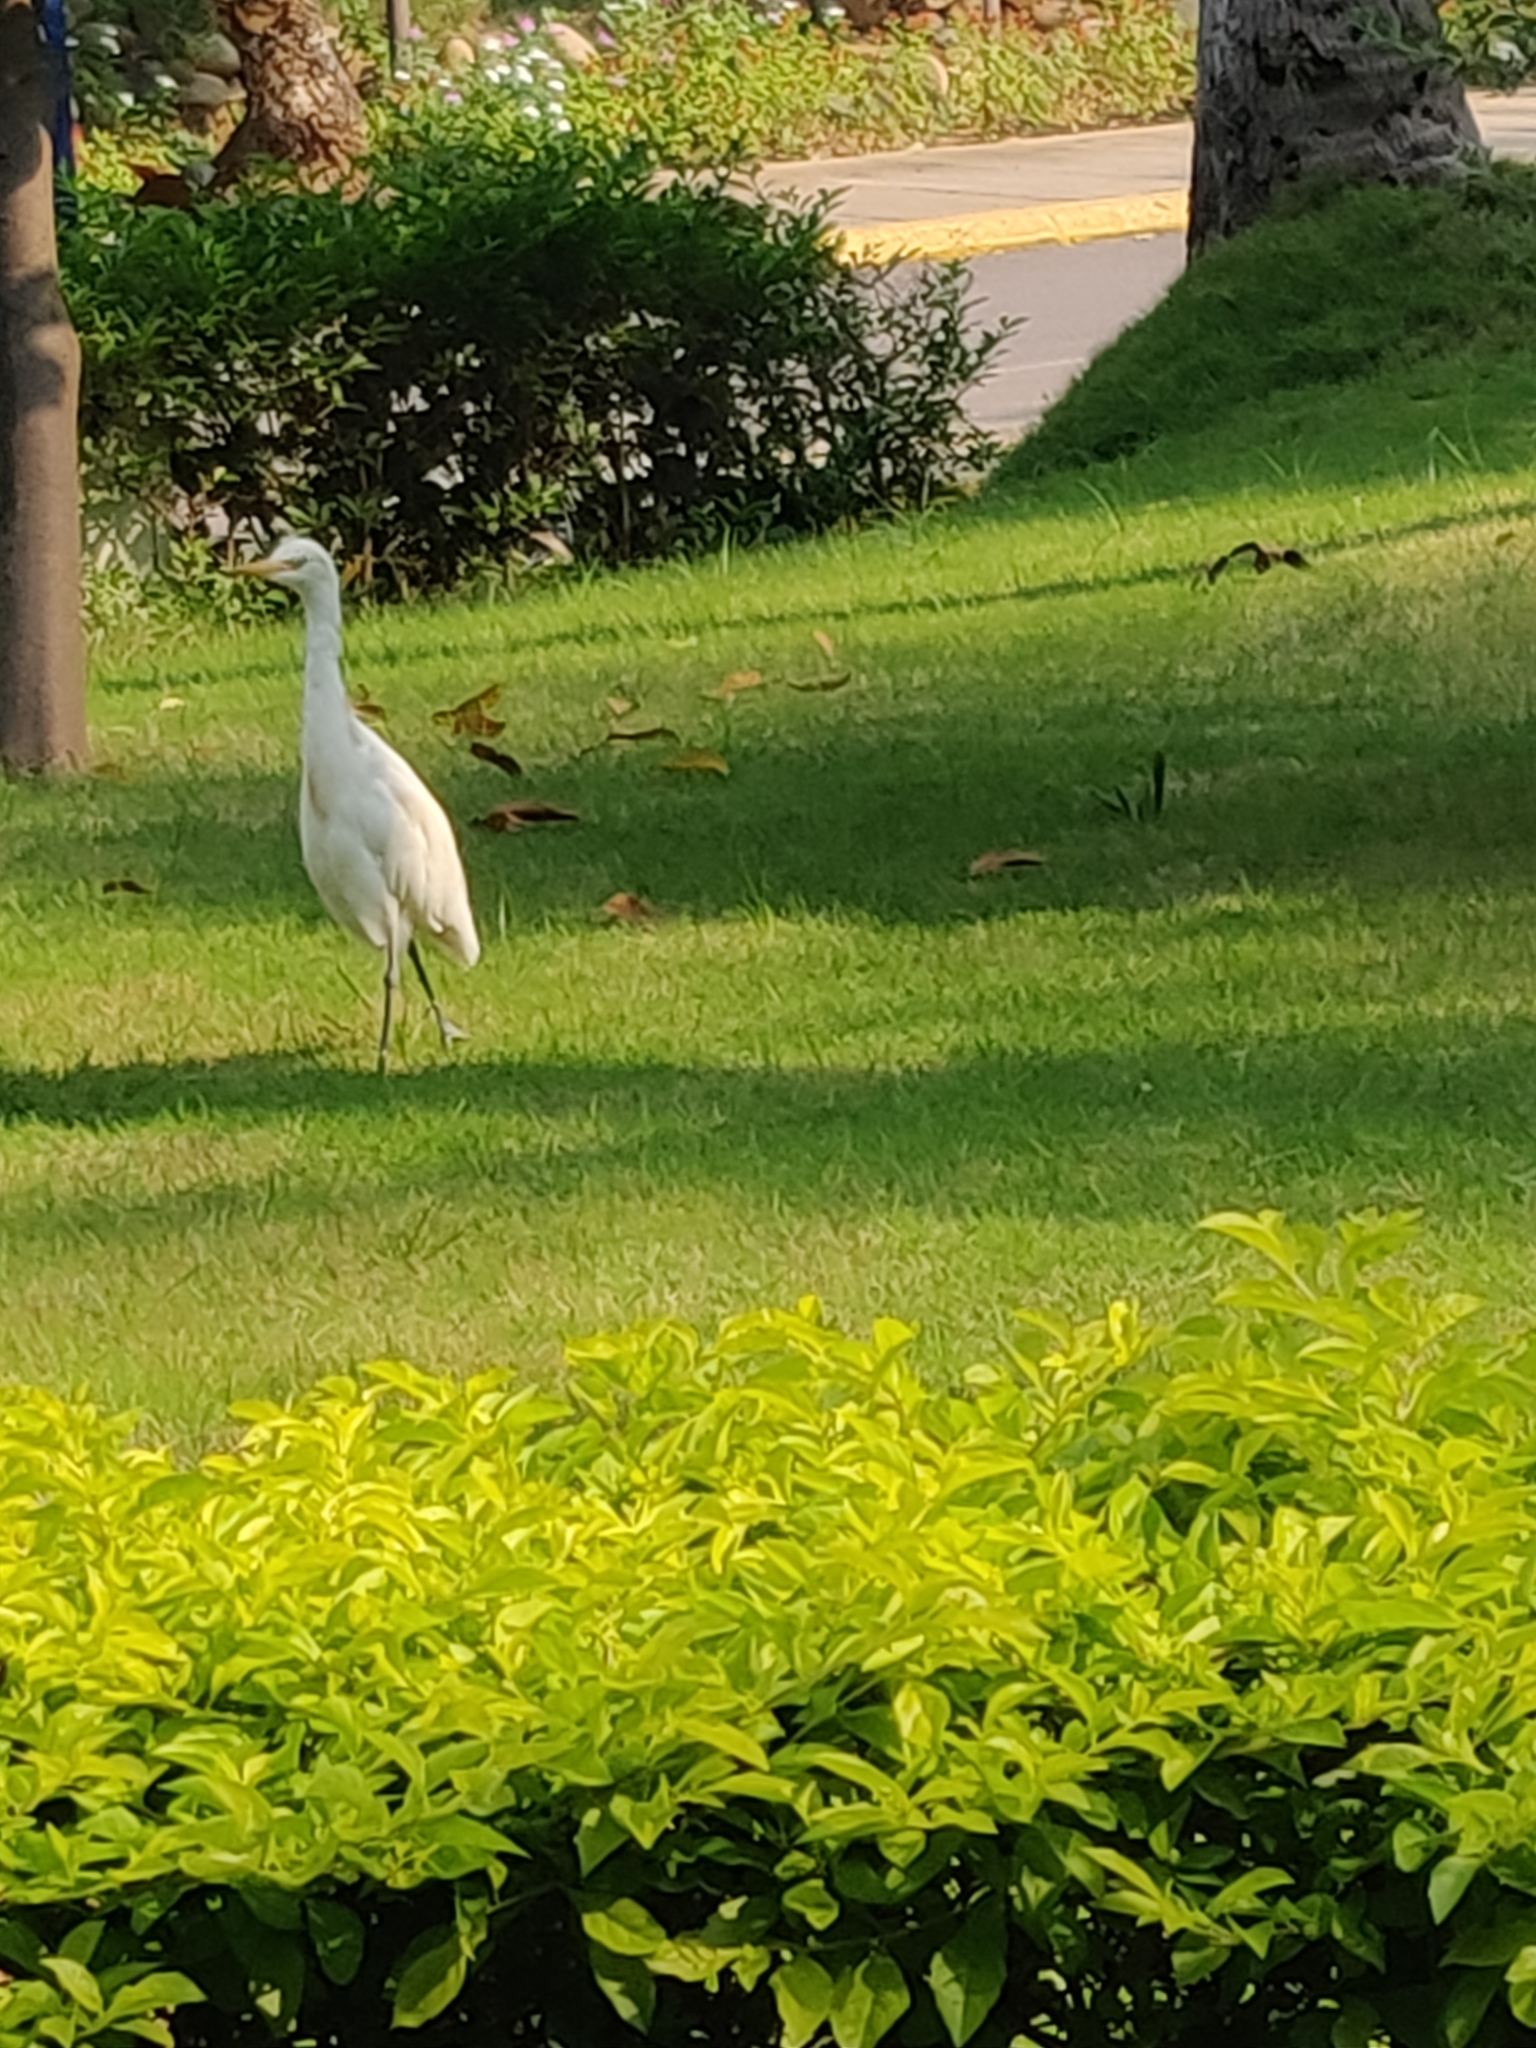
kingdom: Animalia
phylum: Chordata
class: Aves
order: Pelecaniformes
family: Ardeidae
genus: Bubulcus
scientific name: Bubulcus coromandus
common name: Eastern cattle egret
